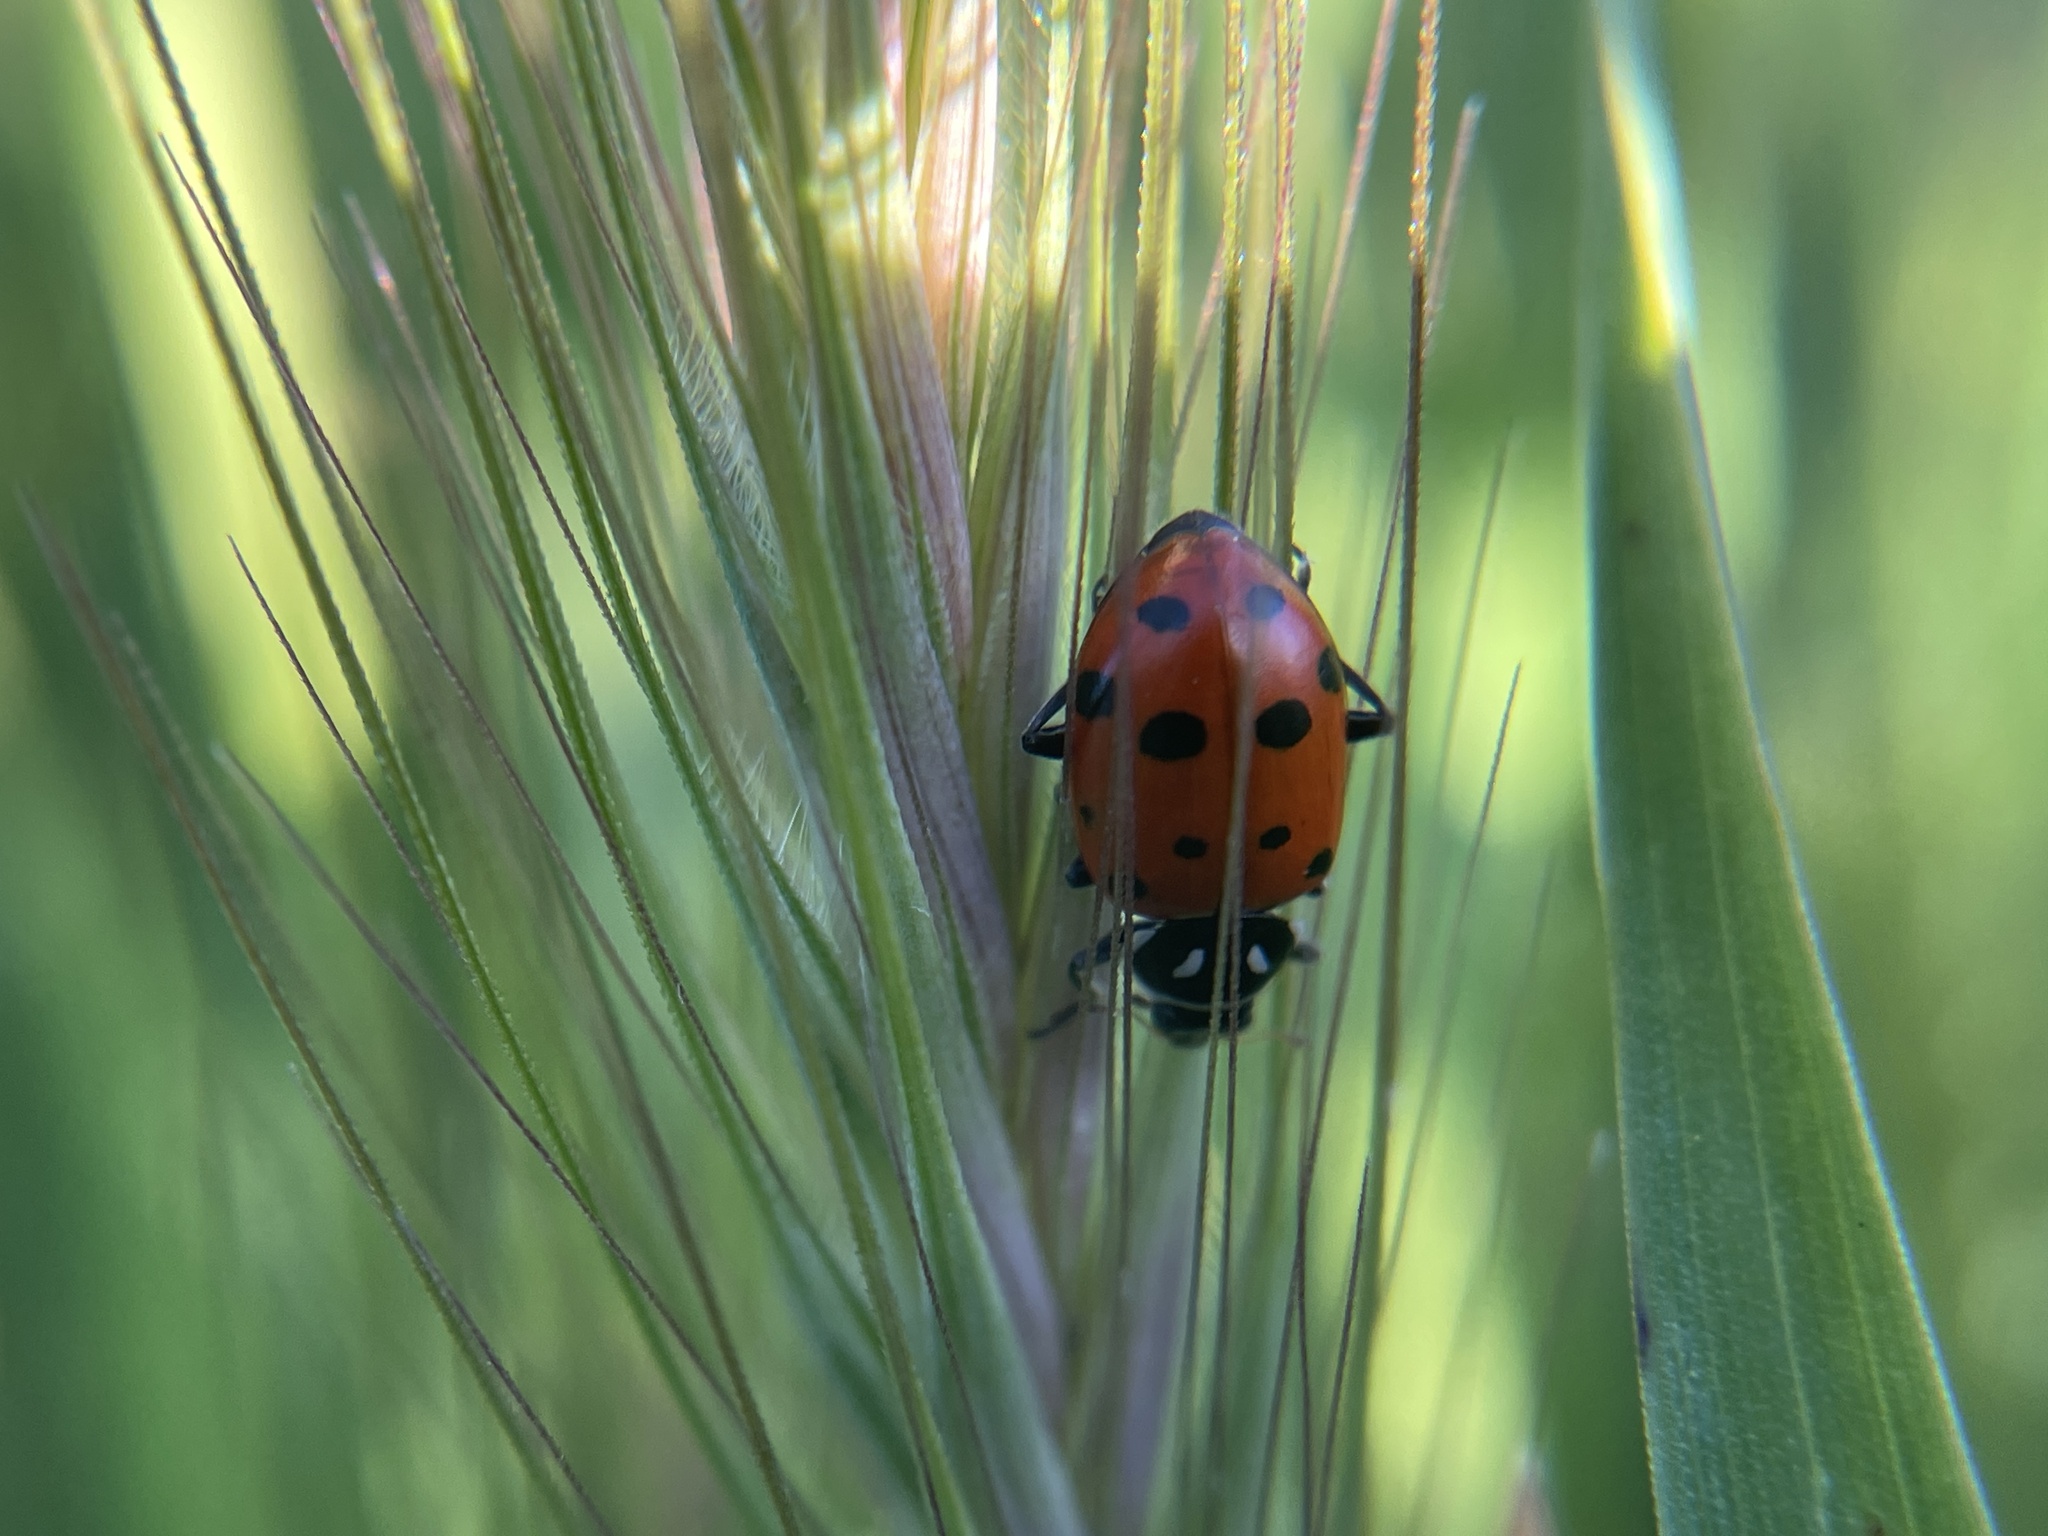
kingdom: Animalia
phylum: Arthropoda
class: Insecta
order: Coleoptera
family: Coccinellidae
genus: Hippodamia
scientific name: Hippodamia convergens
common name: Convergent lady beetle
